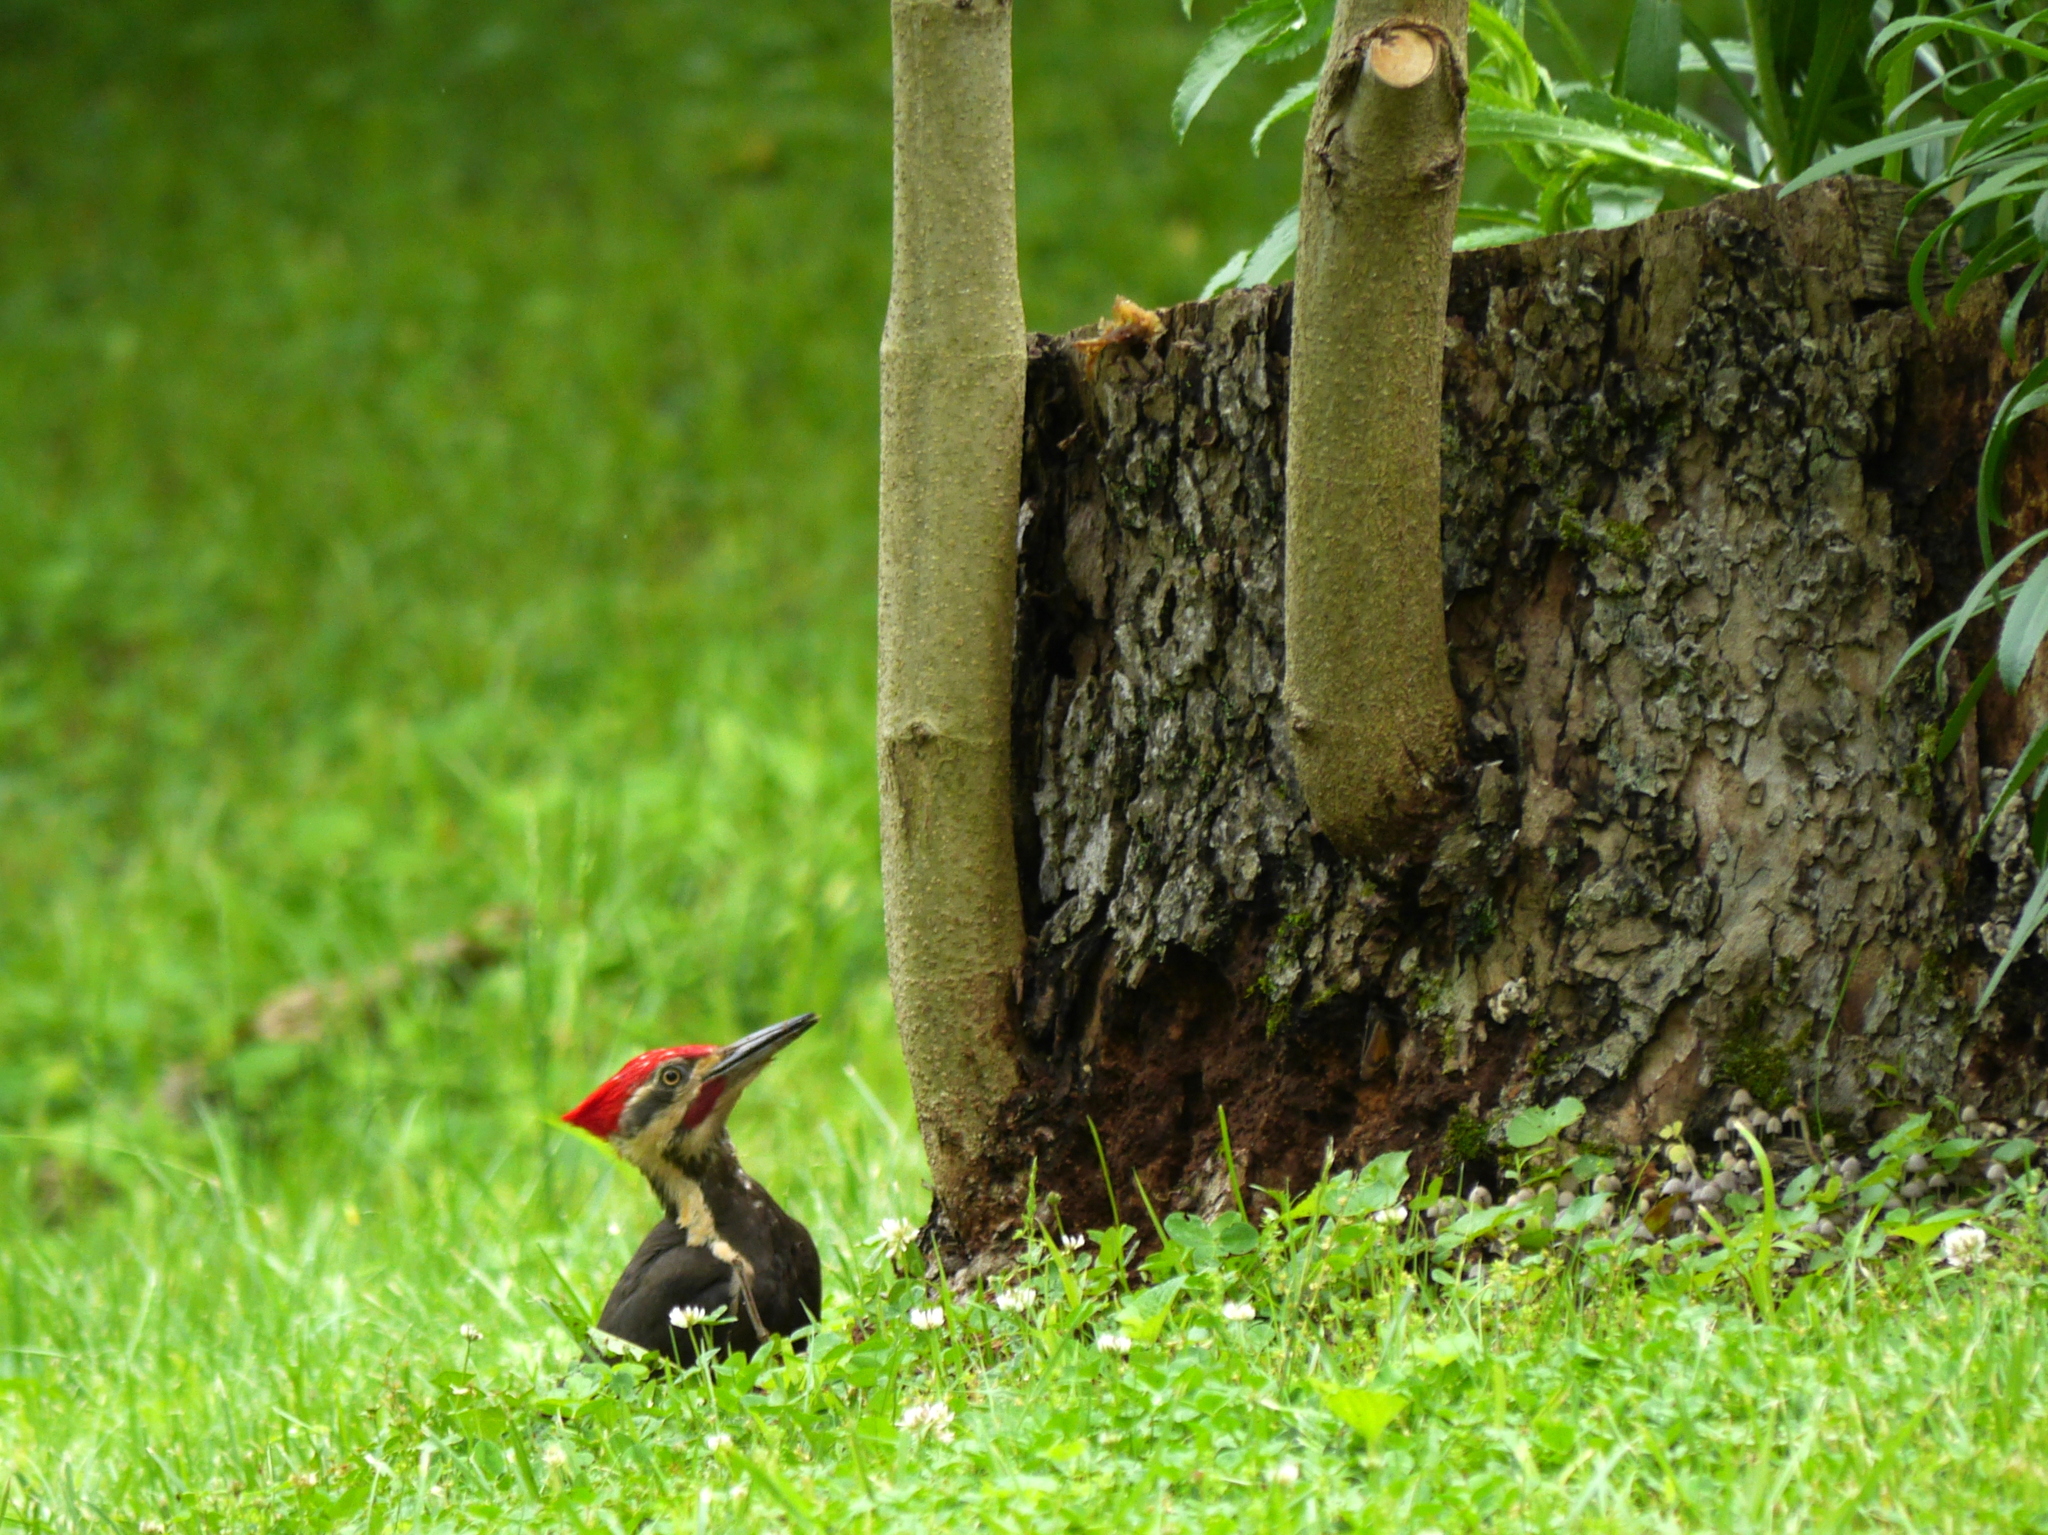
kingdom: Animalia
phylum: Chordata
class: Aves
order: Piciformes
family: Picidae
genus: Dryocopus
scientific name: Dryocopus pileatus
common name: Pileated woodpecker
